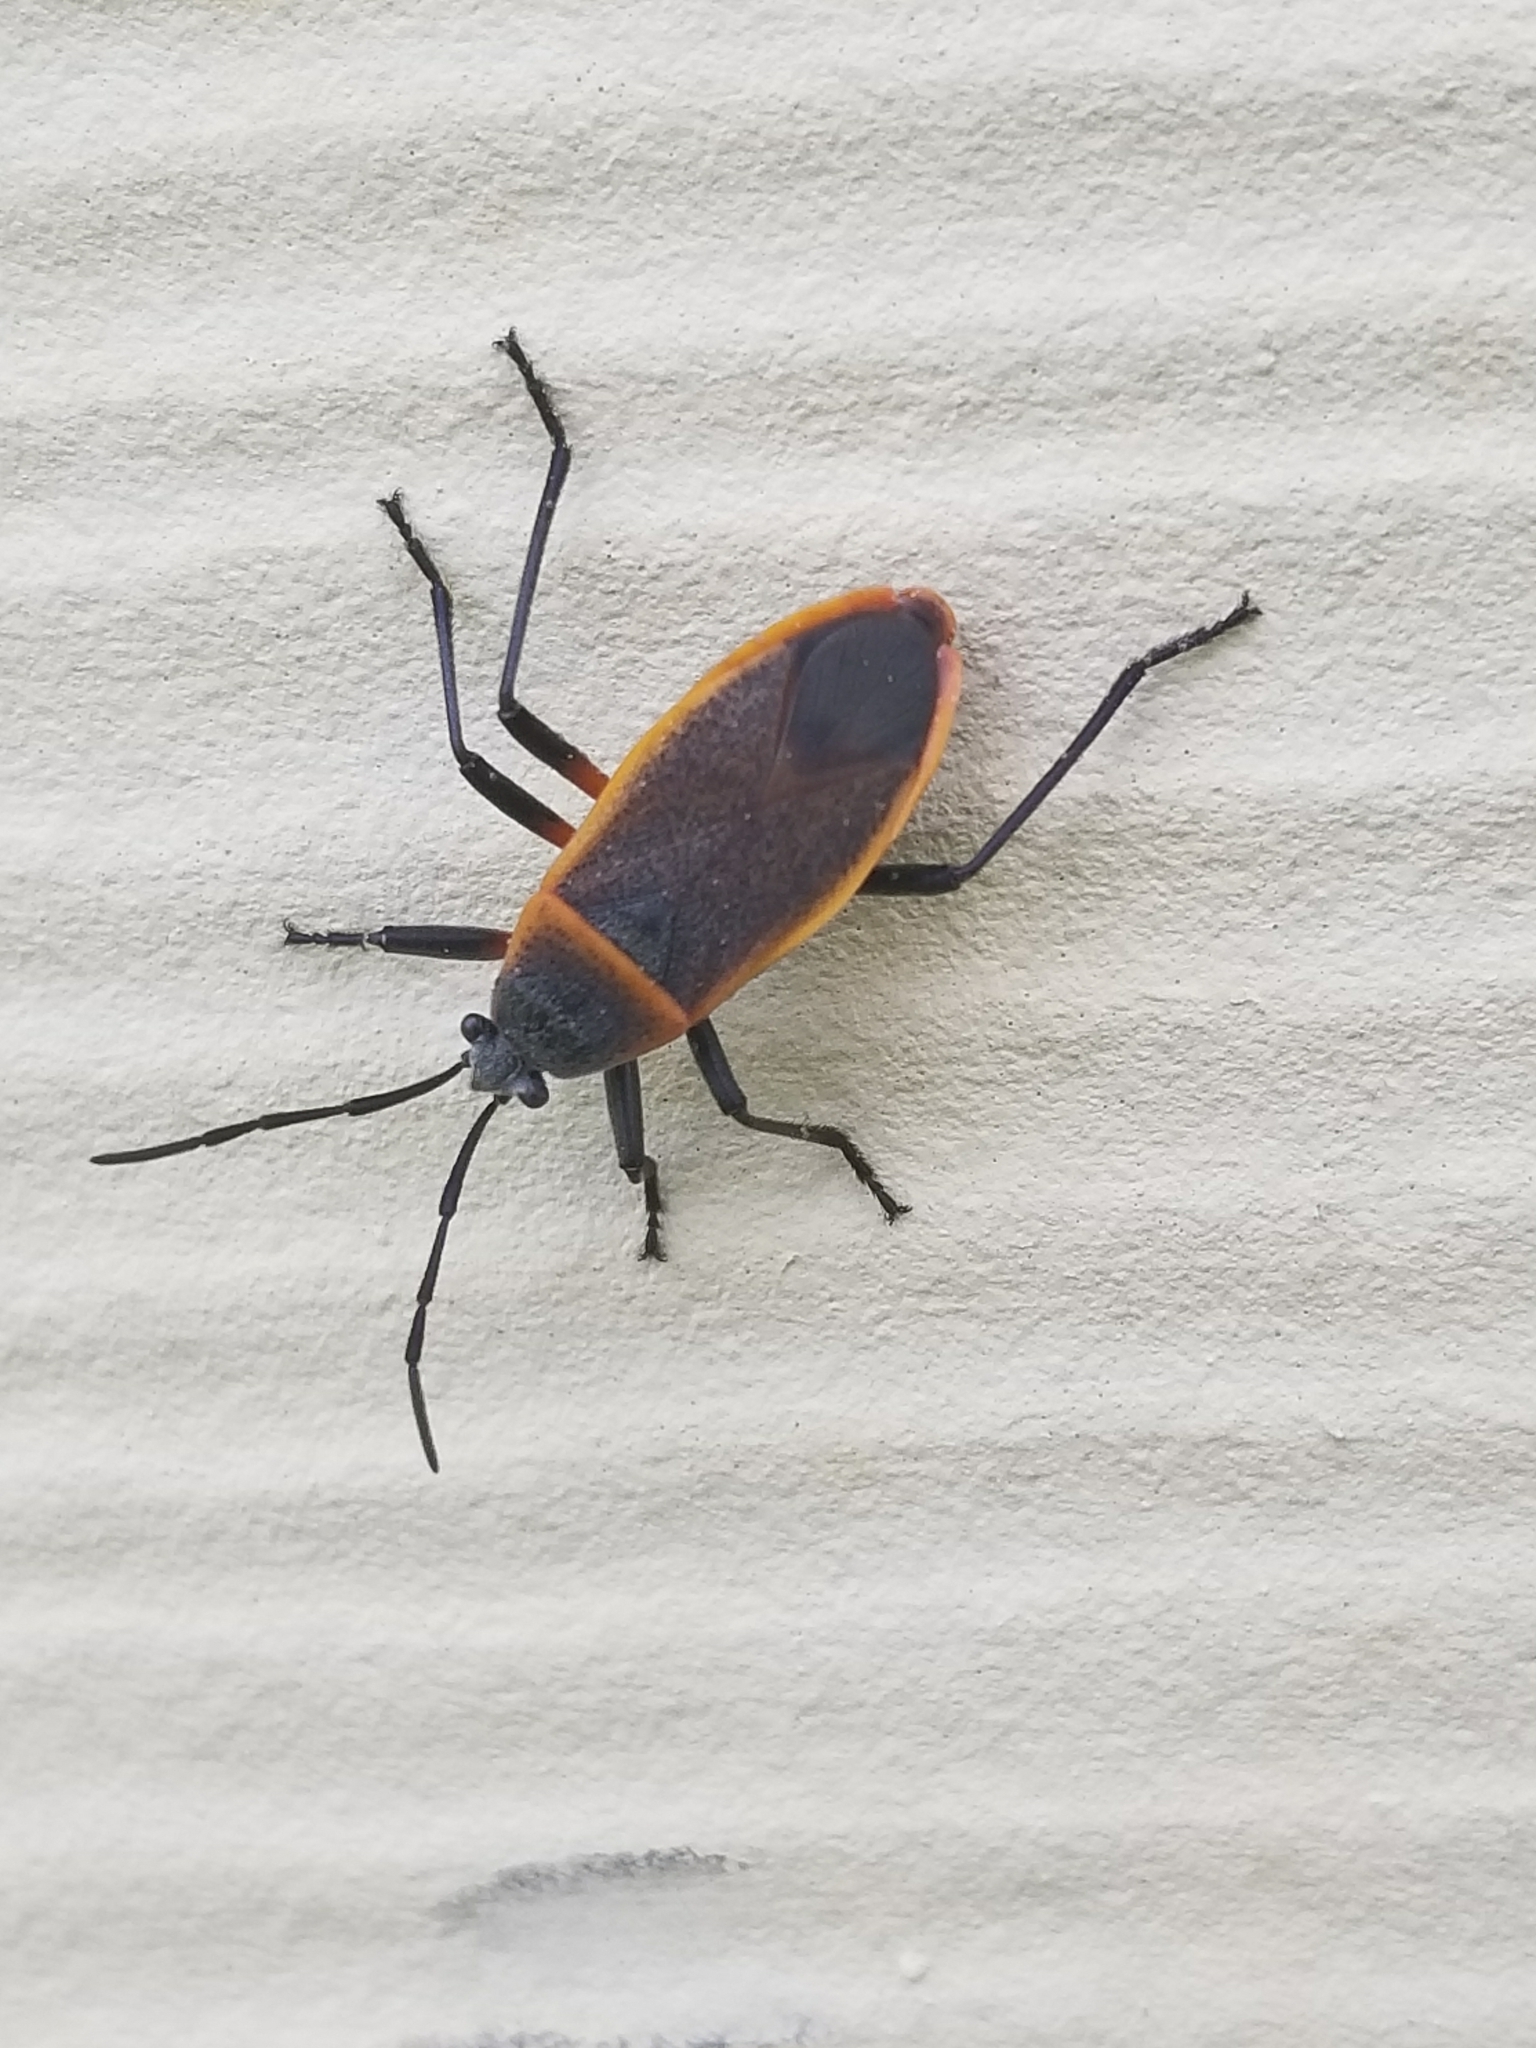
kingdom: Animalia
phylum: Arthropoda
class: Insecta
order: Hemiptera
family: Largidae
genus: Largus
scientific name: Largus succinctus
